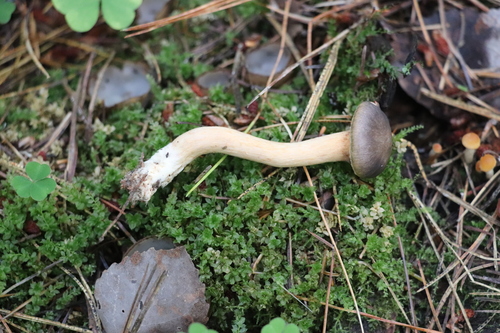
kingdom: Fungi
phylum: Basidiomycota
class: Agaricomycetes
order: Boletales
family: Gomphidiaceae
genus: Chroogomphus
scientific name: Chroogomphus
